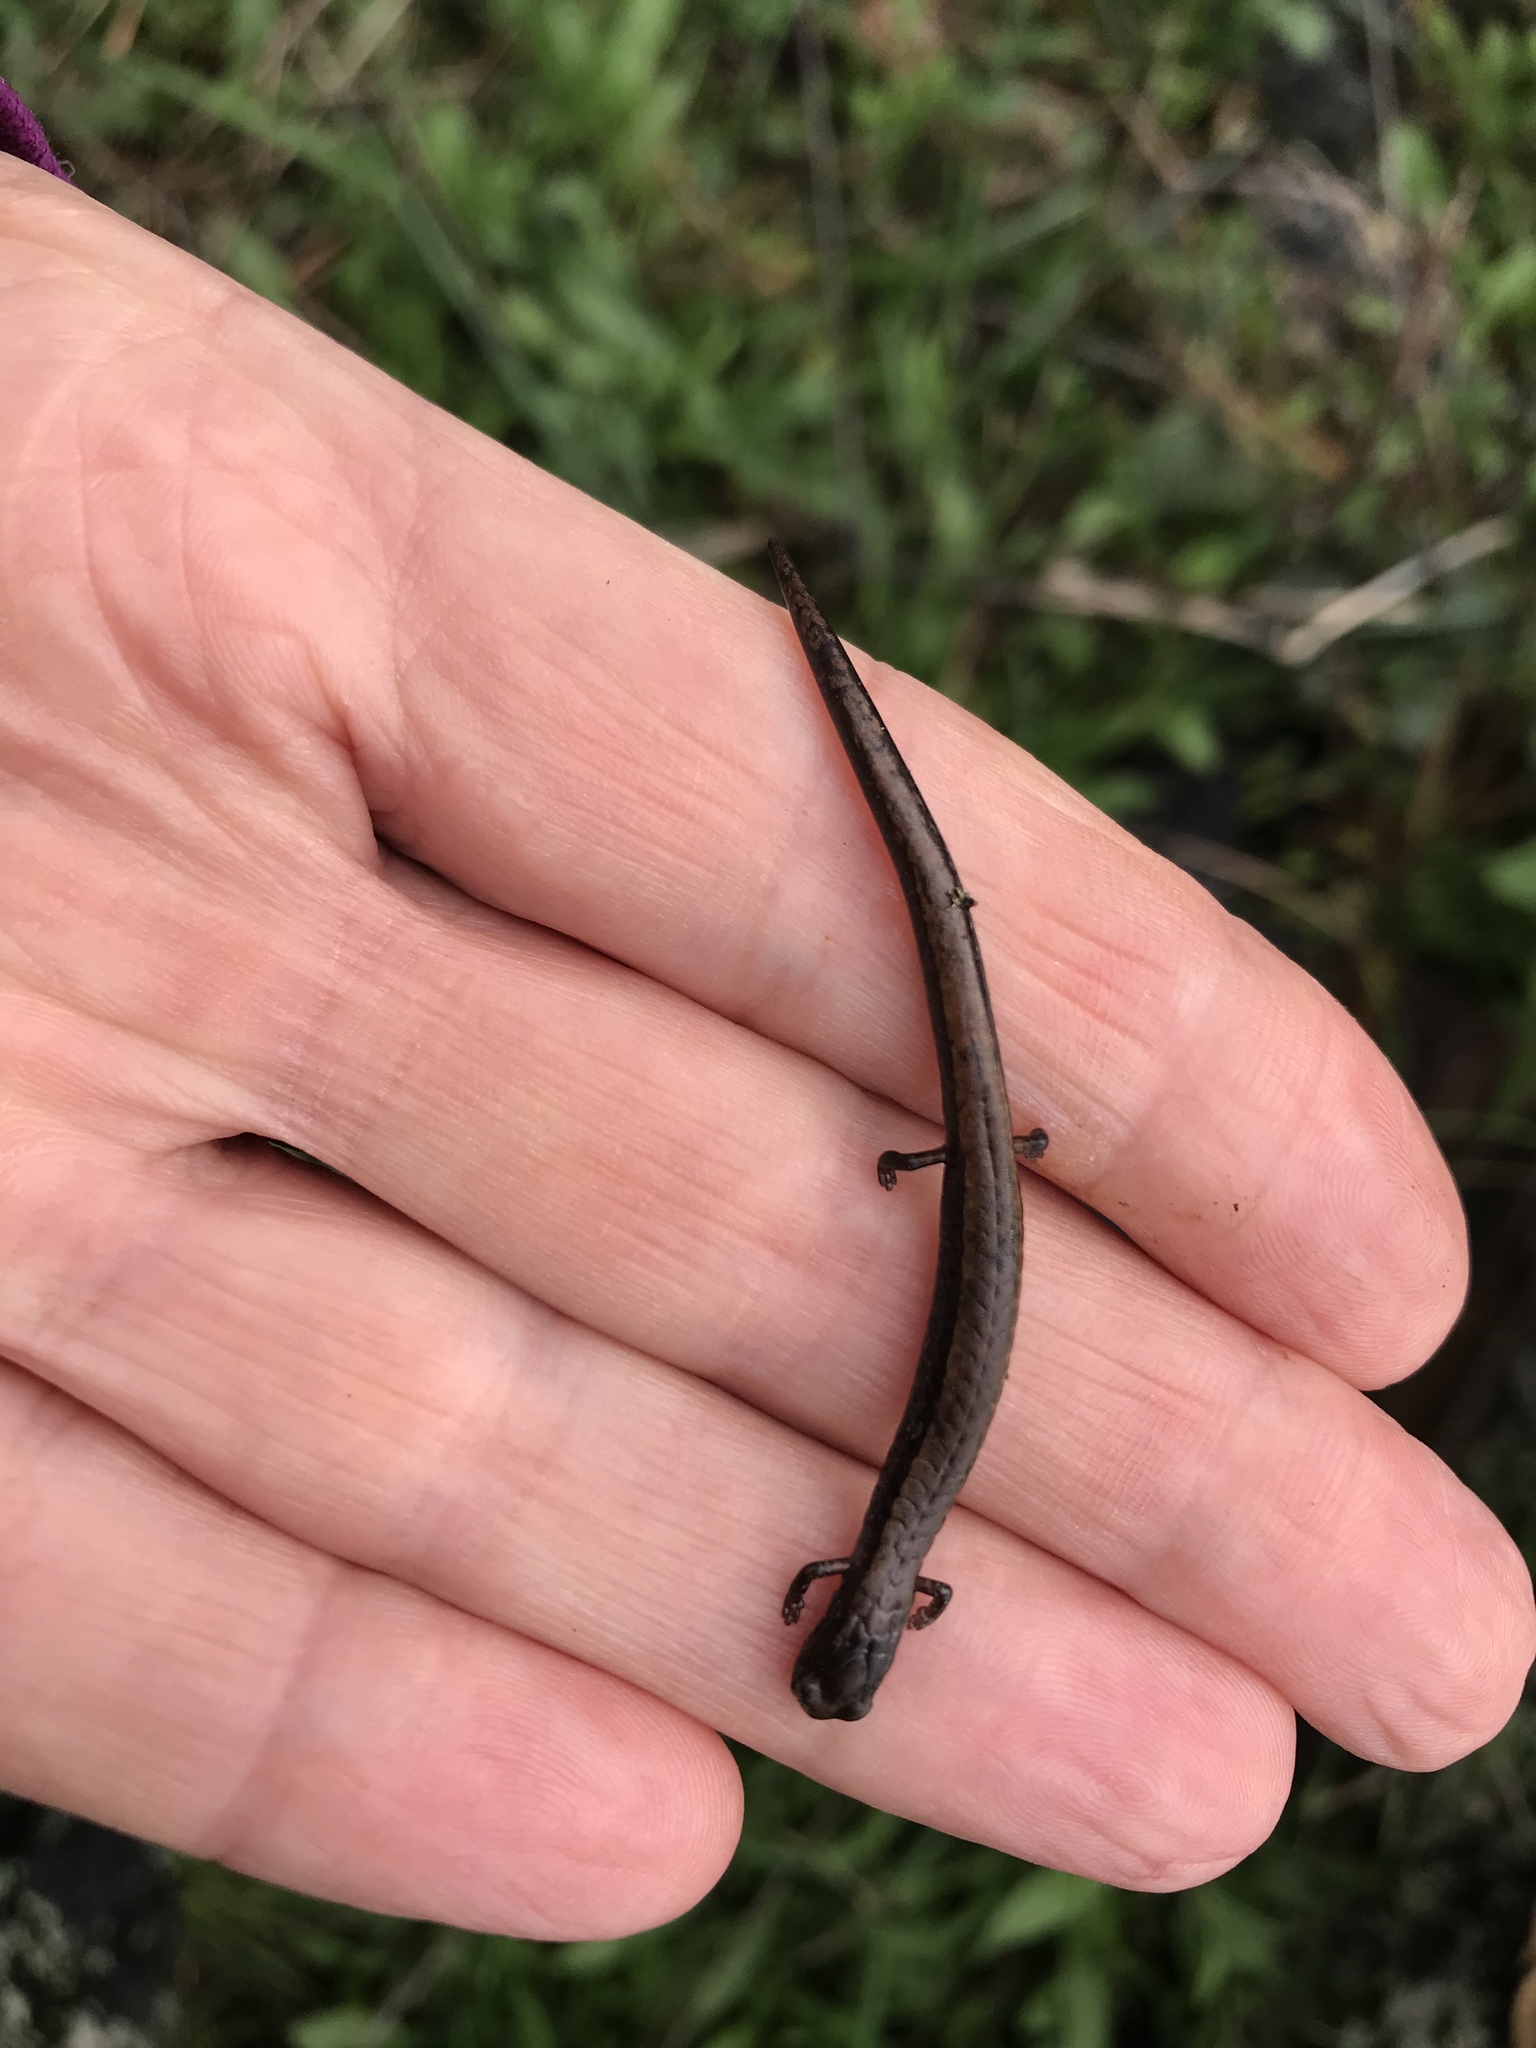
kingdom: Animalia
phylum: Chordata
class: Amphibia
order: Caudata
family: Plethodontidae
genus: Batrachoseps
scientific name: Batrachoseps attenuatus
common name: California slender salamander
